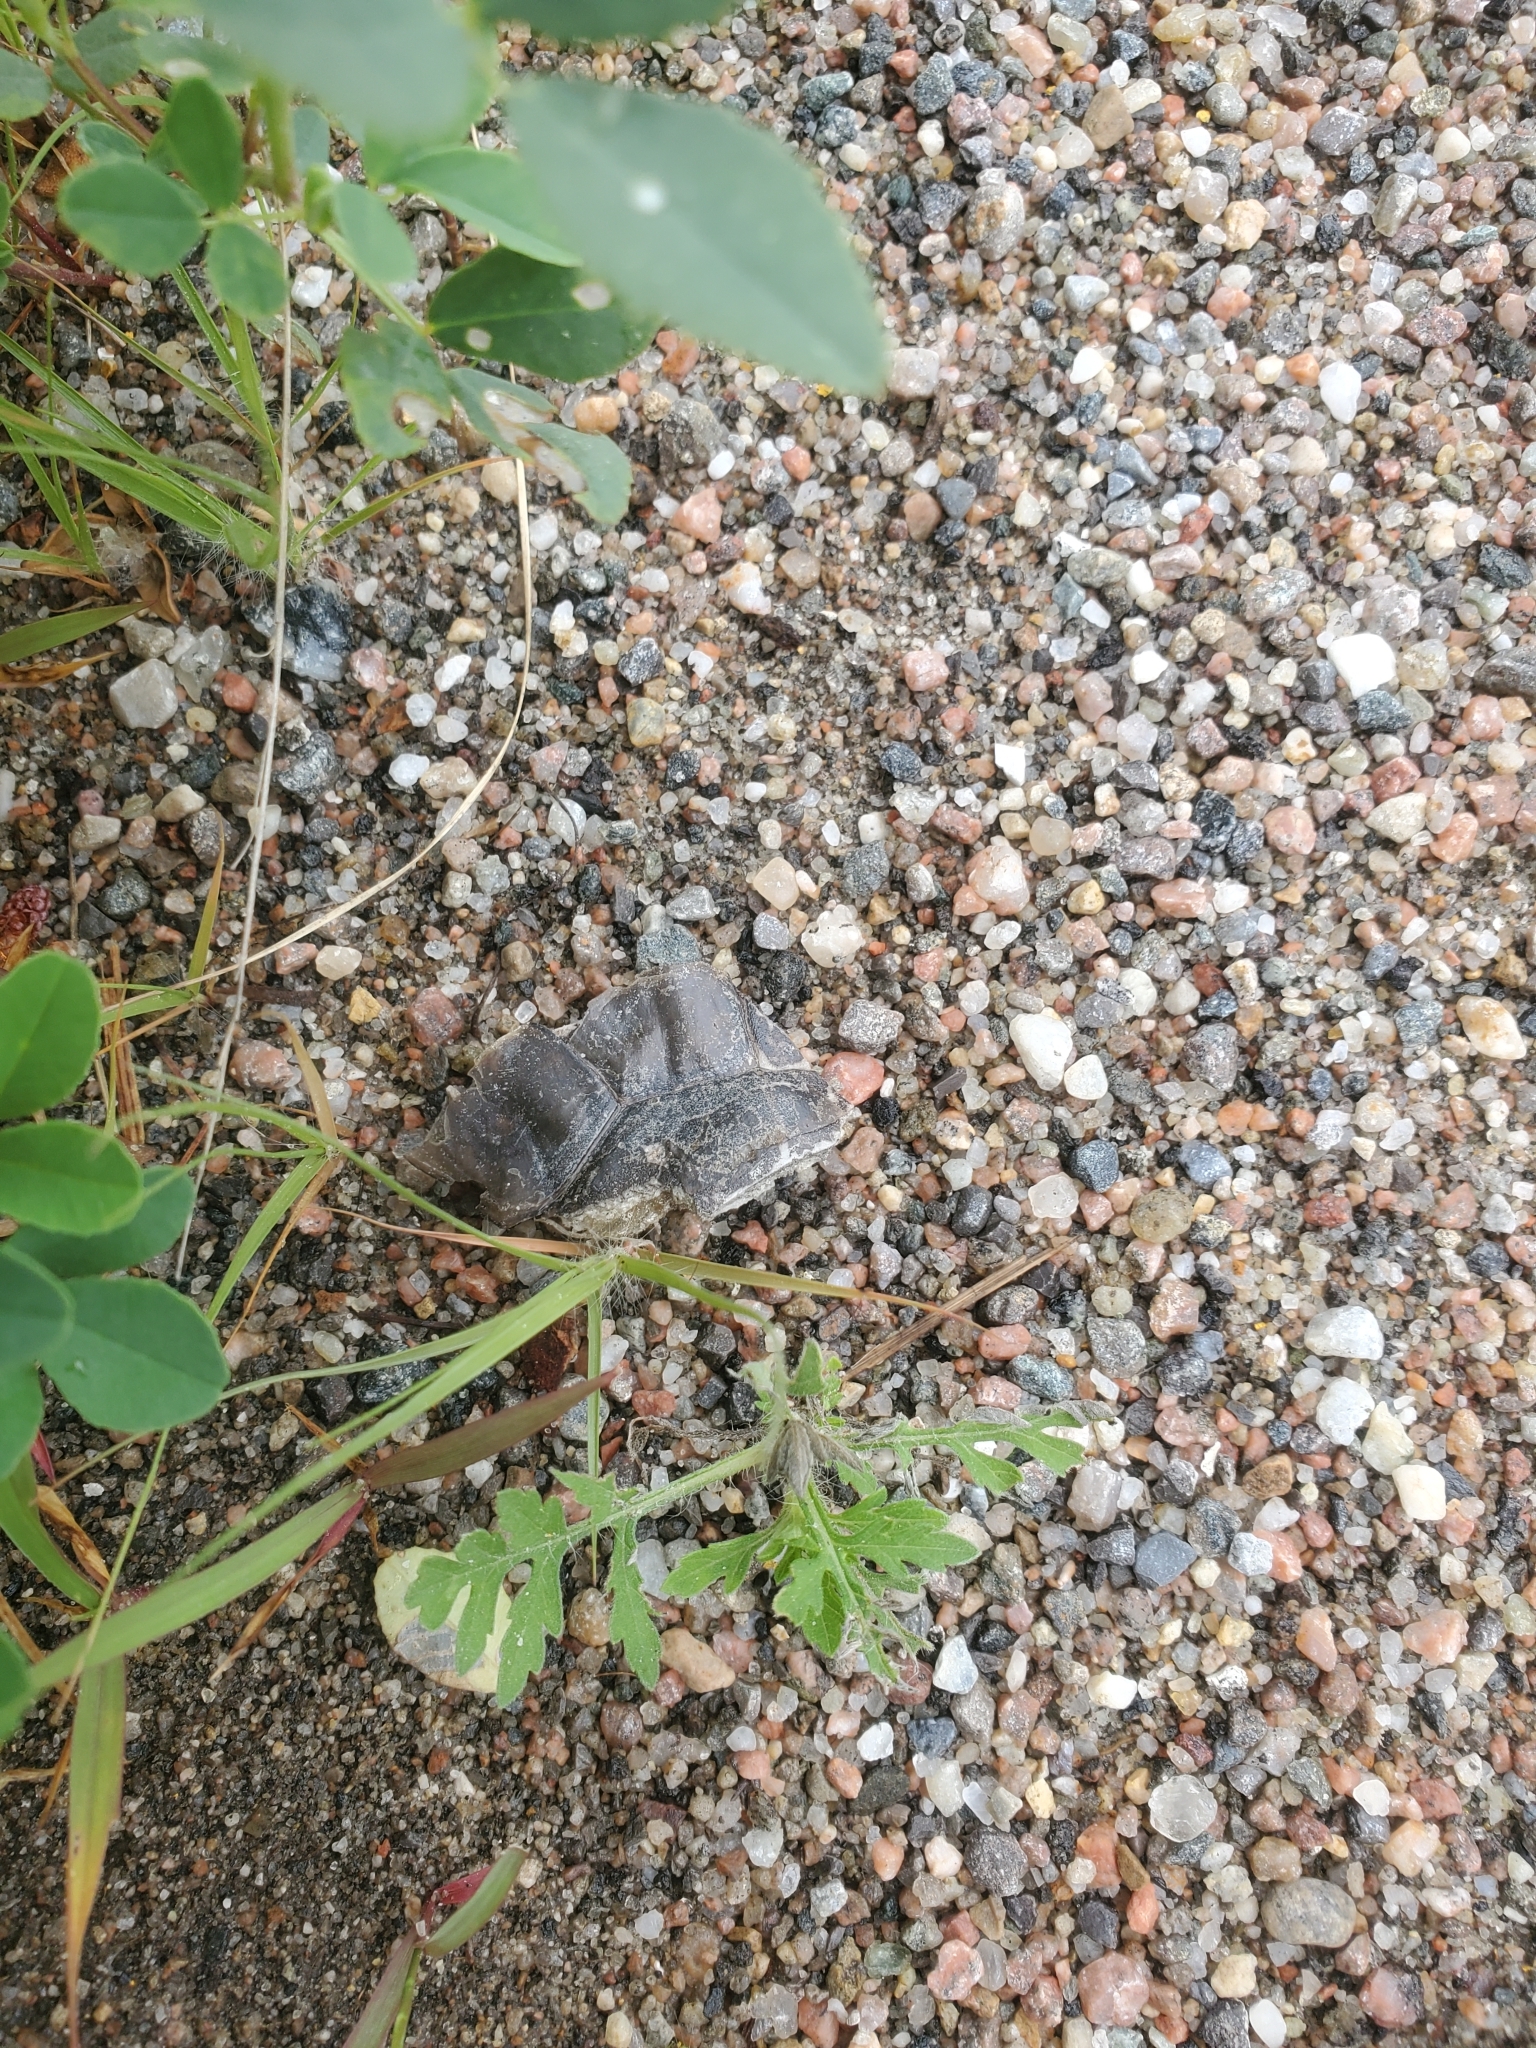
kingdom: Animalia
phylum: Chordata
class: Testudines
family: Emydidae
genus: Chrysemys
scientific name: Chrysemys picta
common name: Painted turtle
